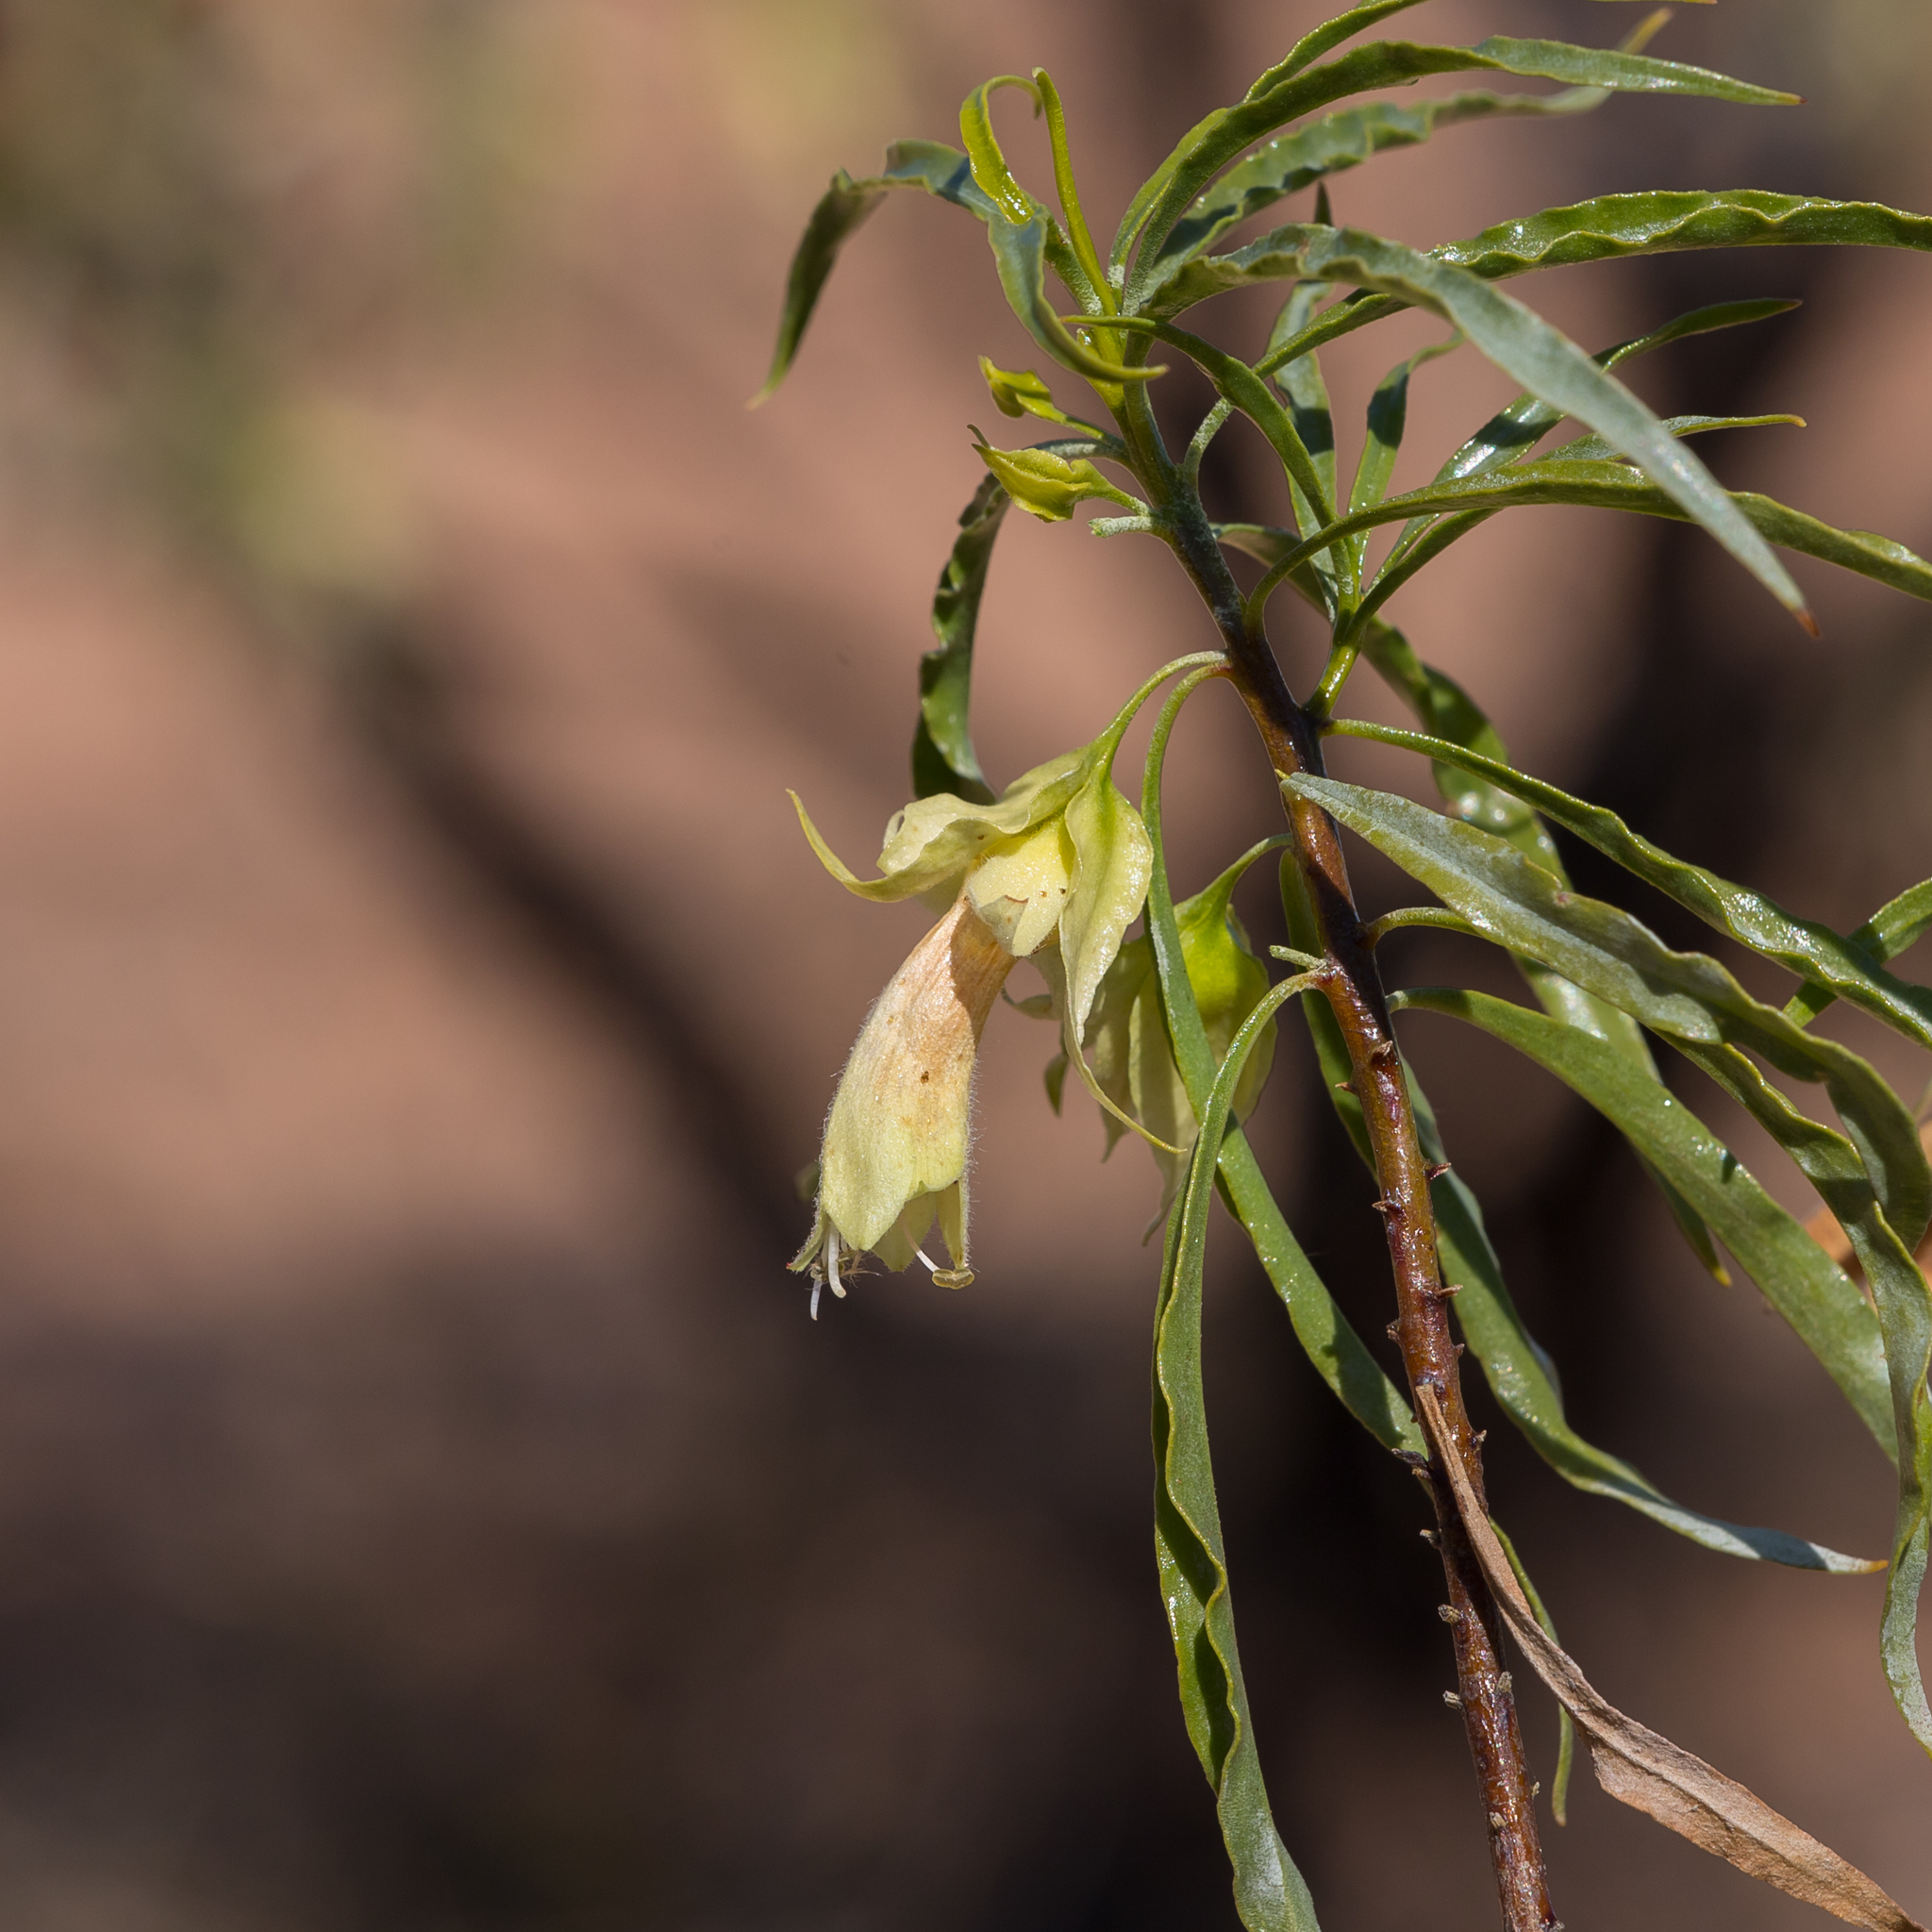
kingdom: Plantae
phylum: Tracheophyta
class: Magnoliopsida
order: Lamiales
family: Scrophulariaceae
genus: Eremophila
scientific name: Eremophila alatisepala
